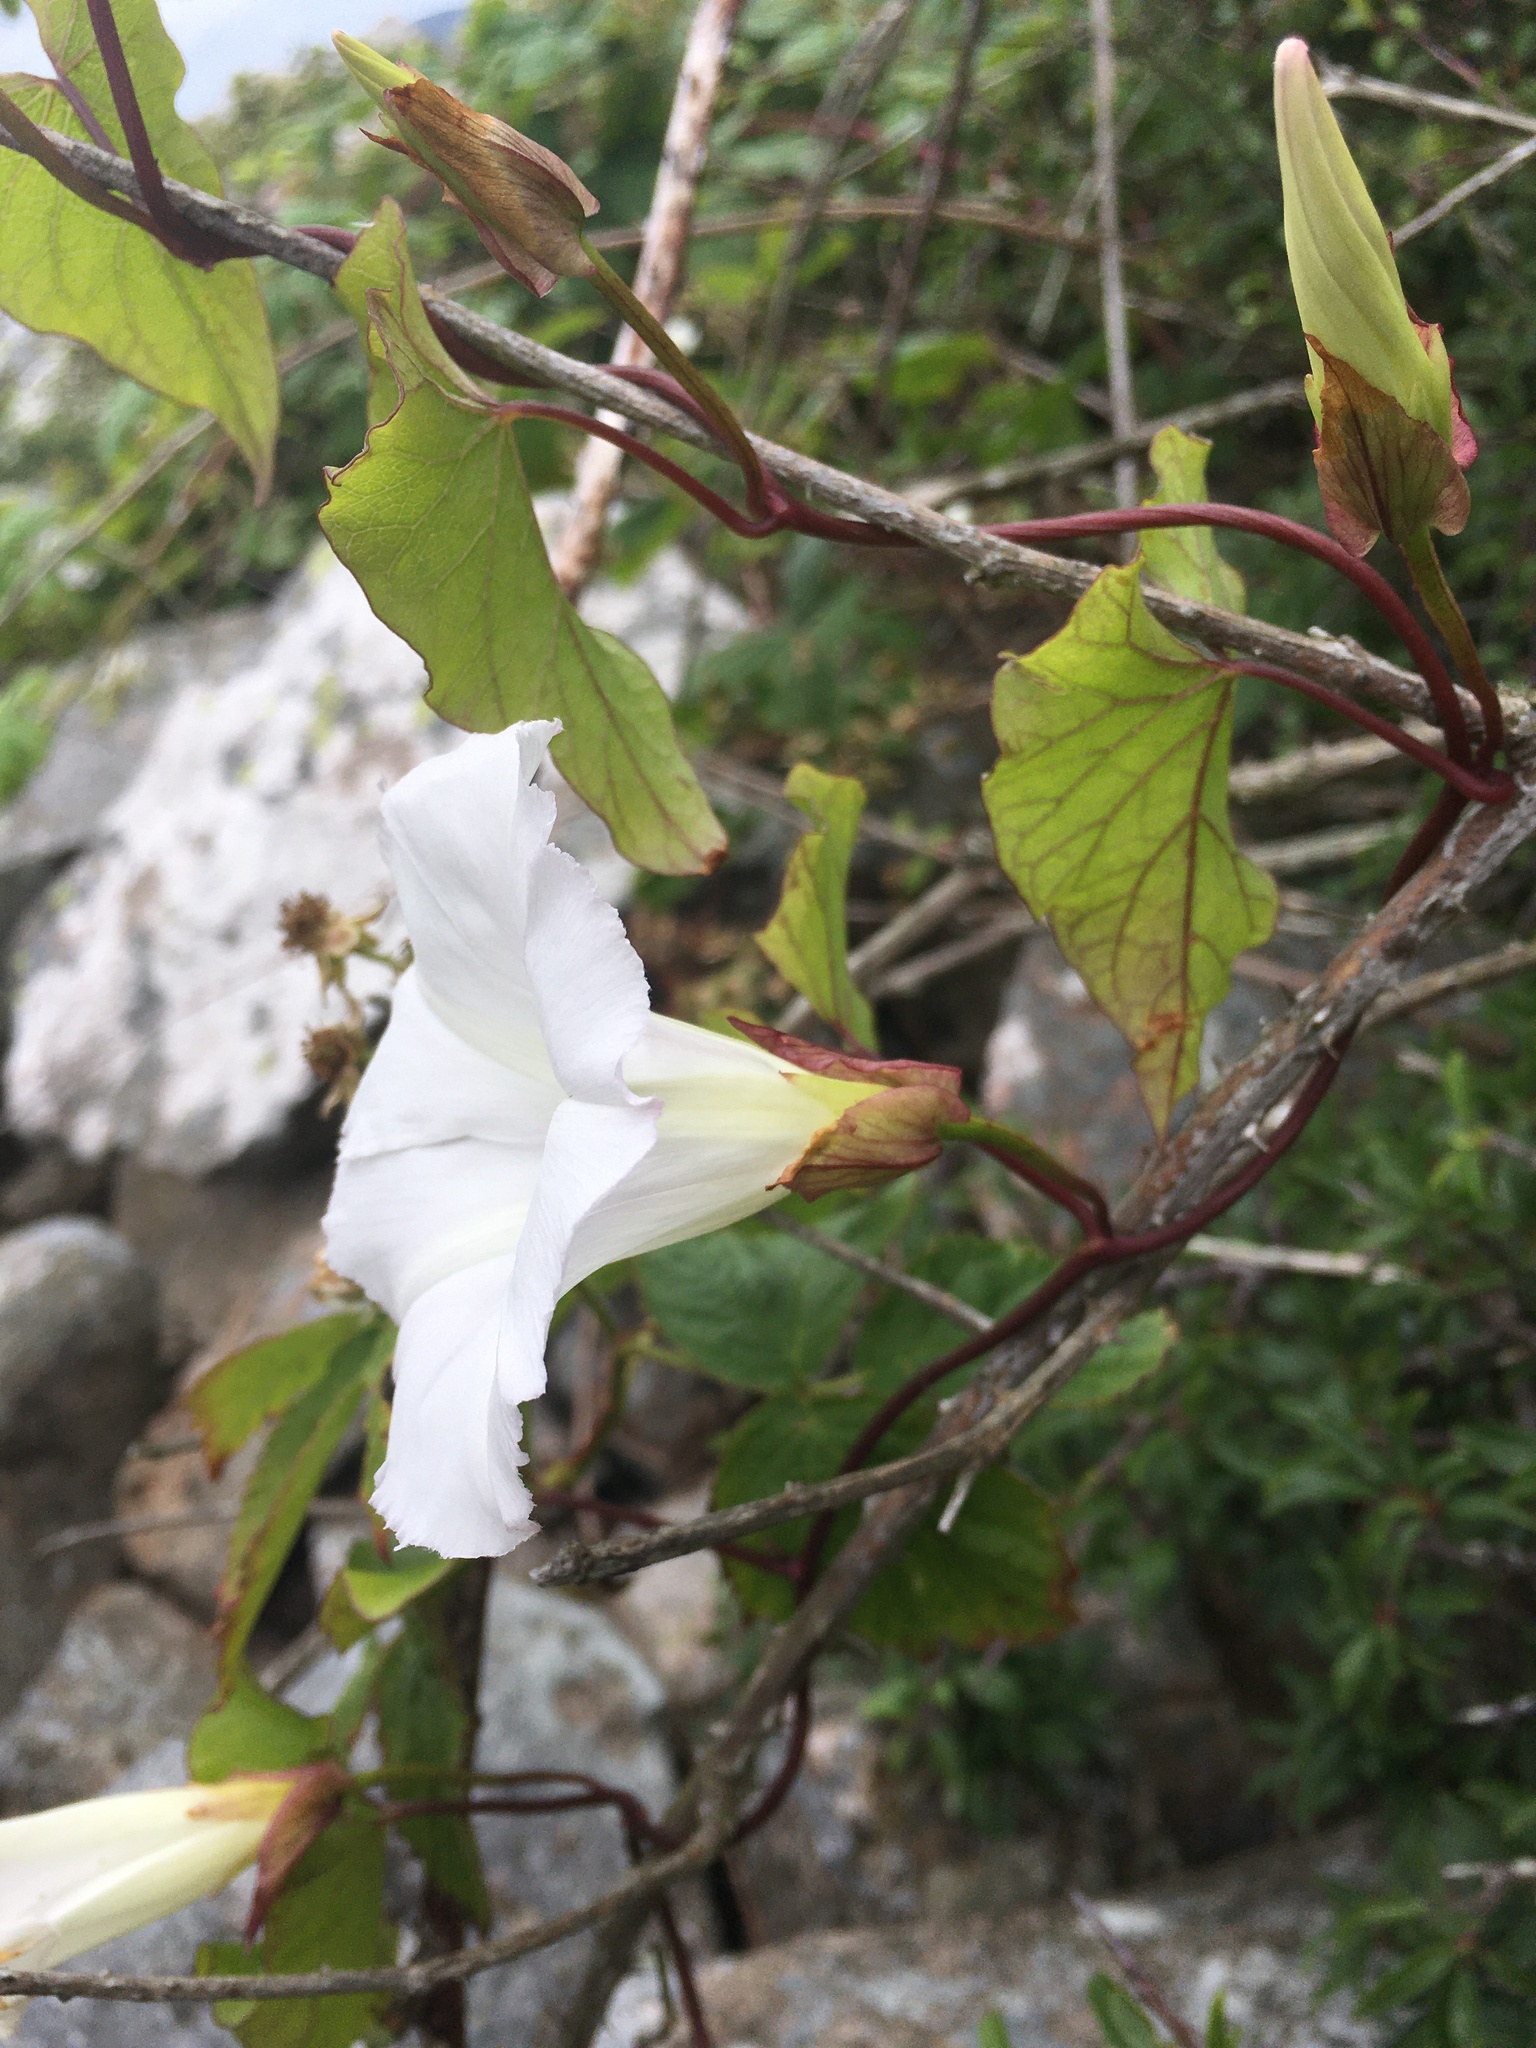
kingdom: Plantae
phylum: Tracheophyta
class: Magnoliopsida
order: Solanales
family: Convolvulaceae
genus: Calystegia
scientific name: Calystegia sepium
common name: Hedge bindweed
